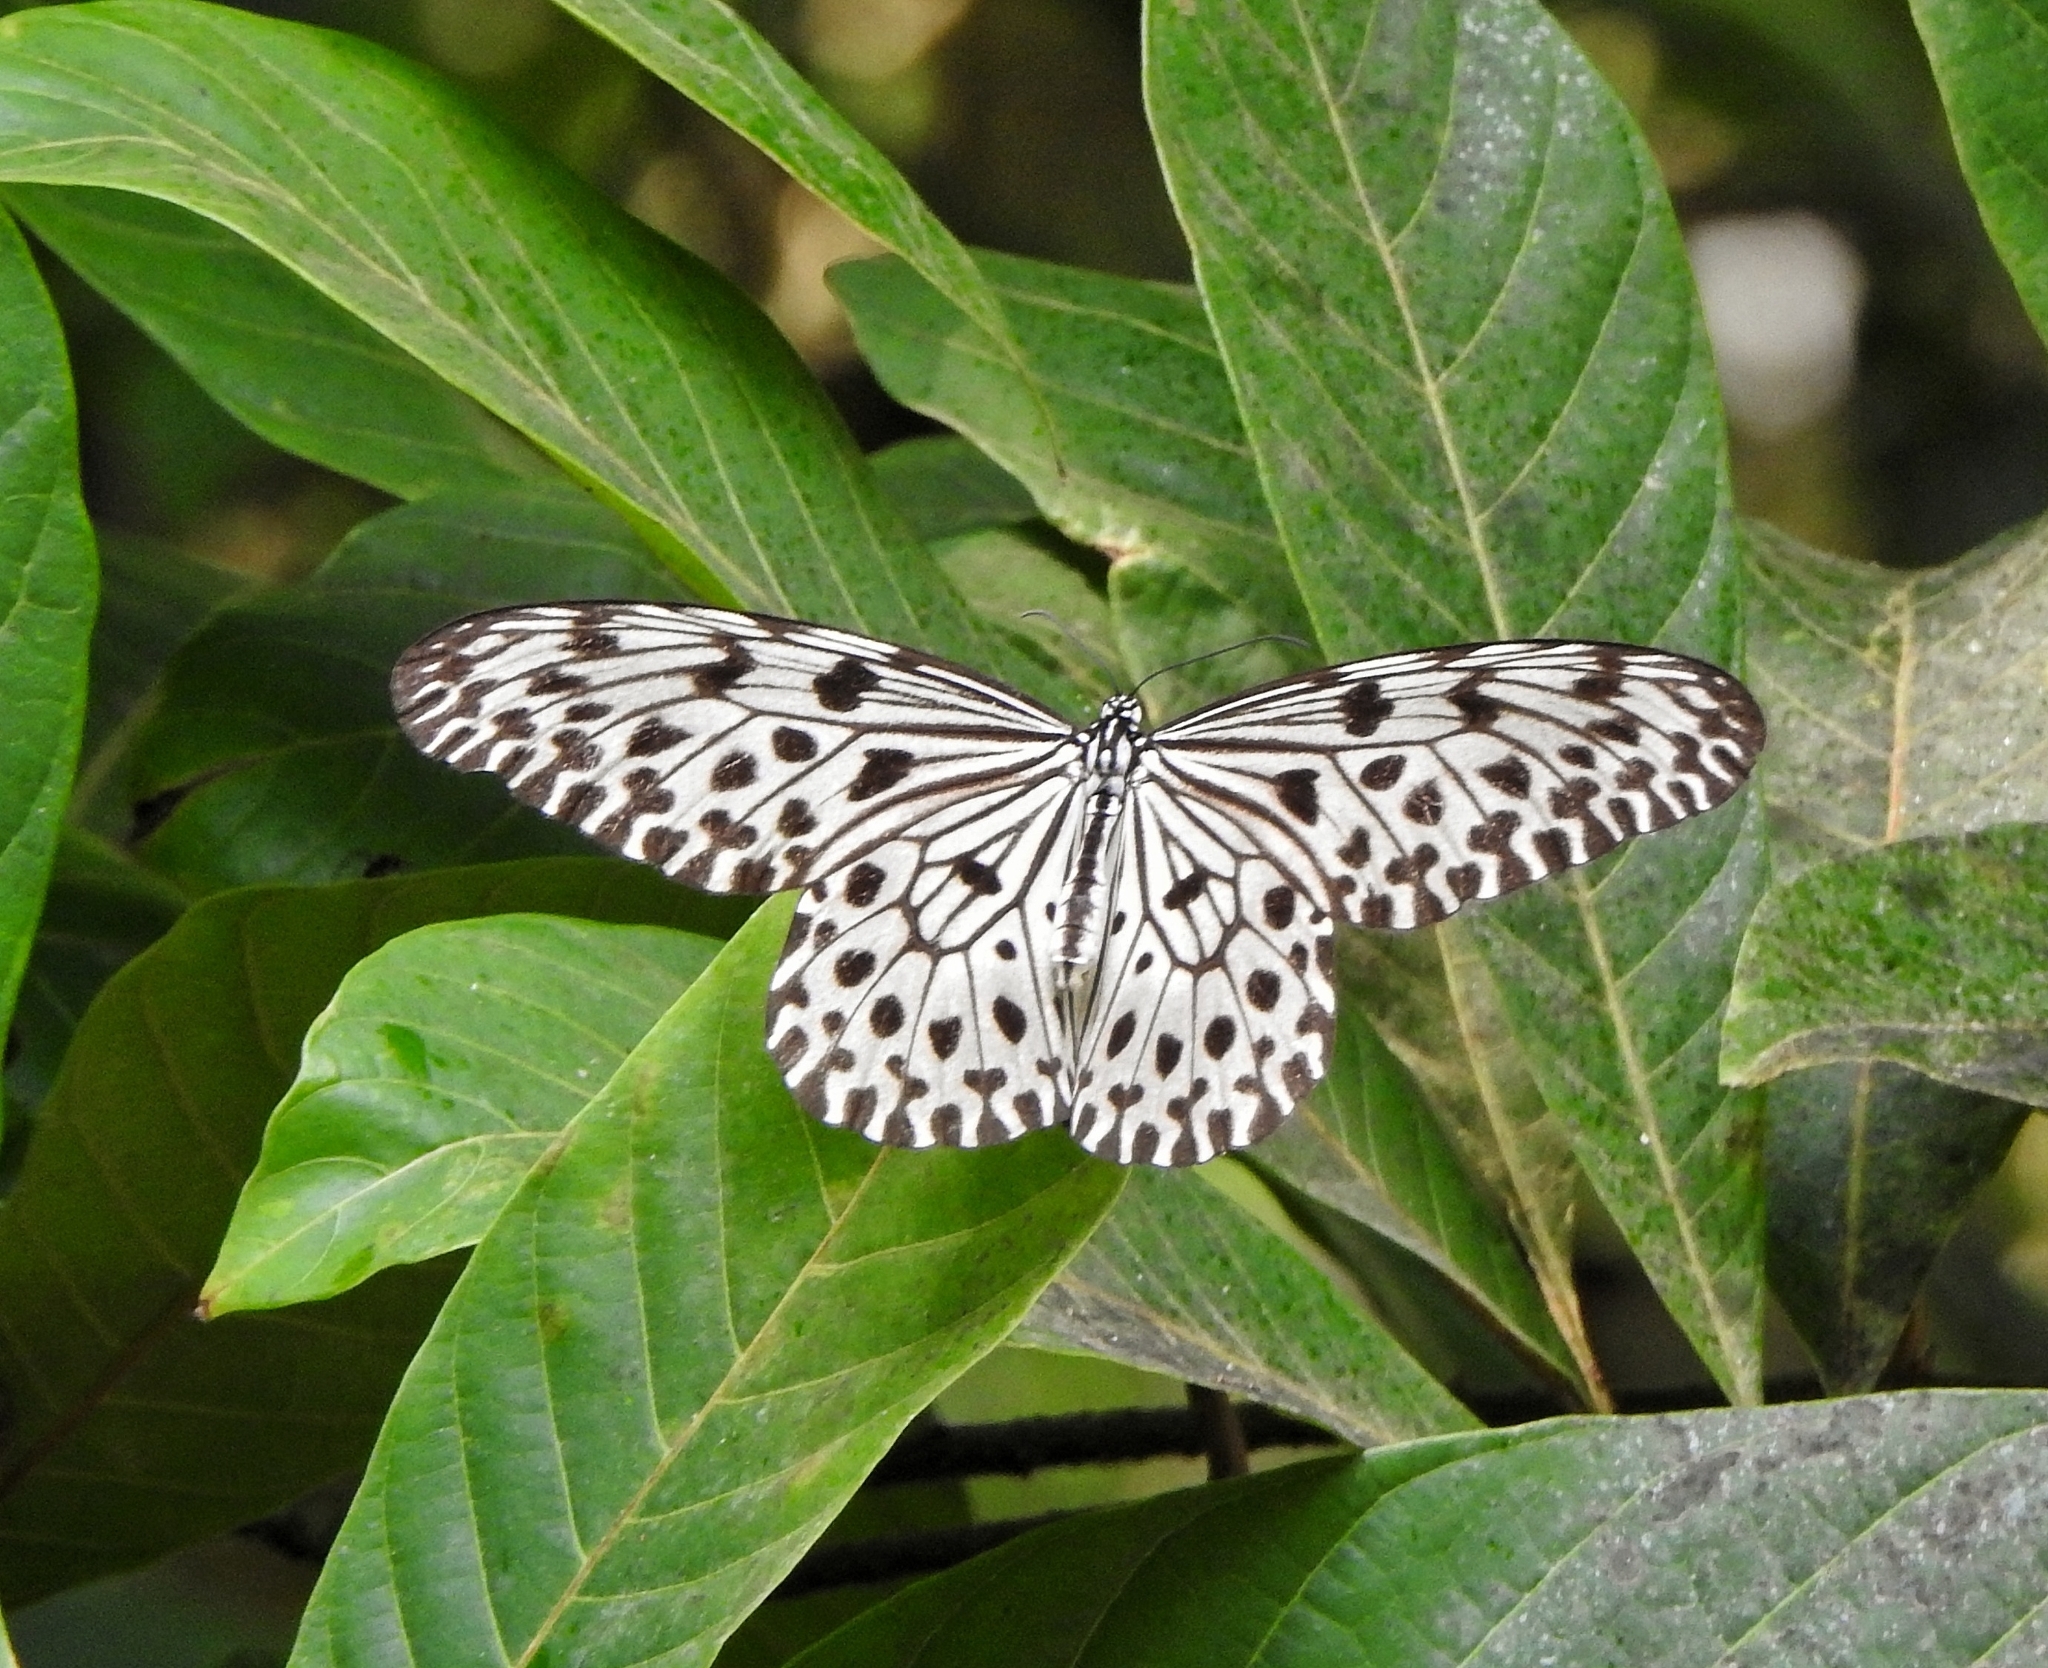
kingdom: Animalia
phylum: Arthropoda
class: Insecta
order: Lepidoptera
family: Nymphalidae
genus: Idea
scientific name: Idea malabarica
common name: Malabar tree-nymph
